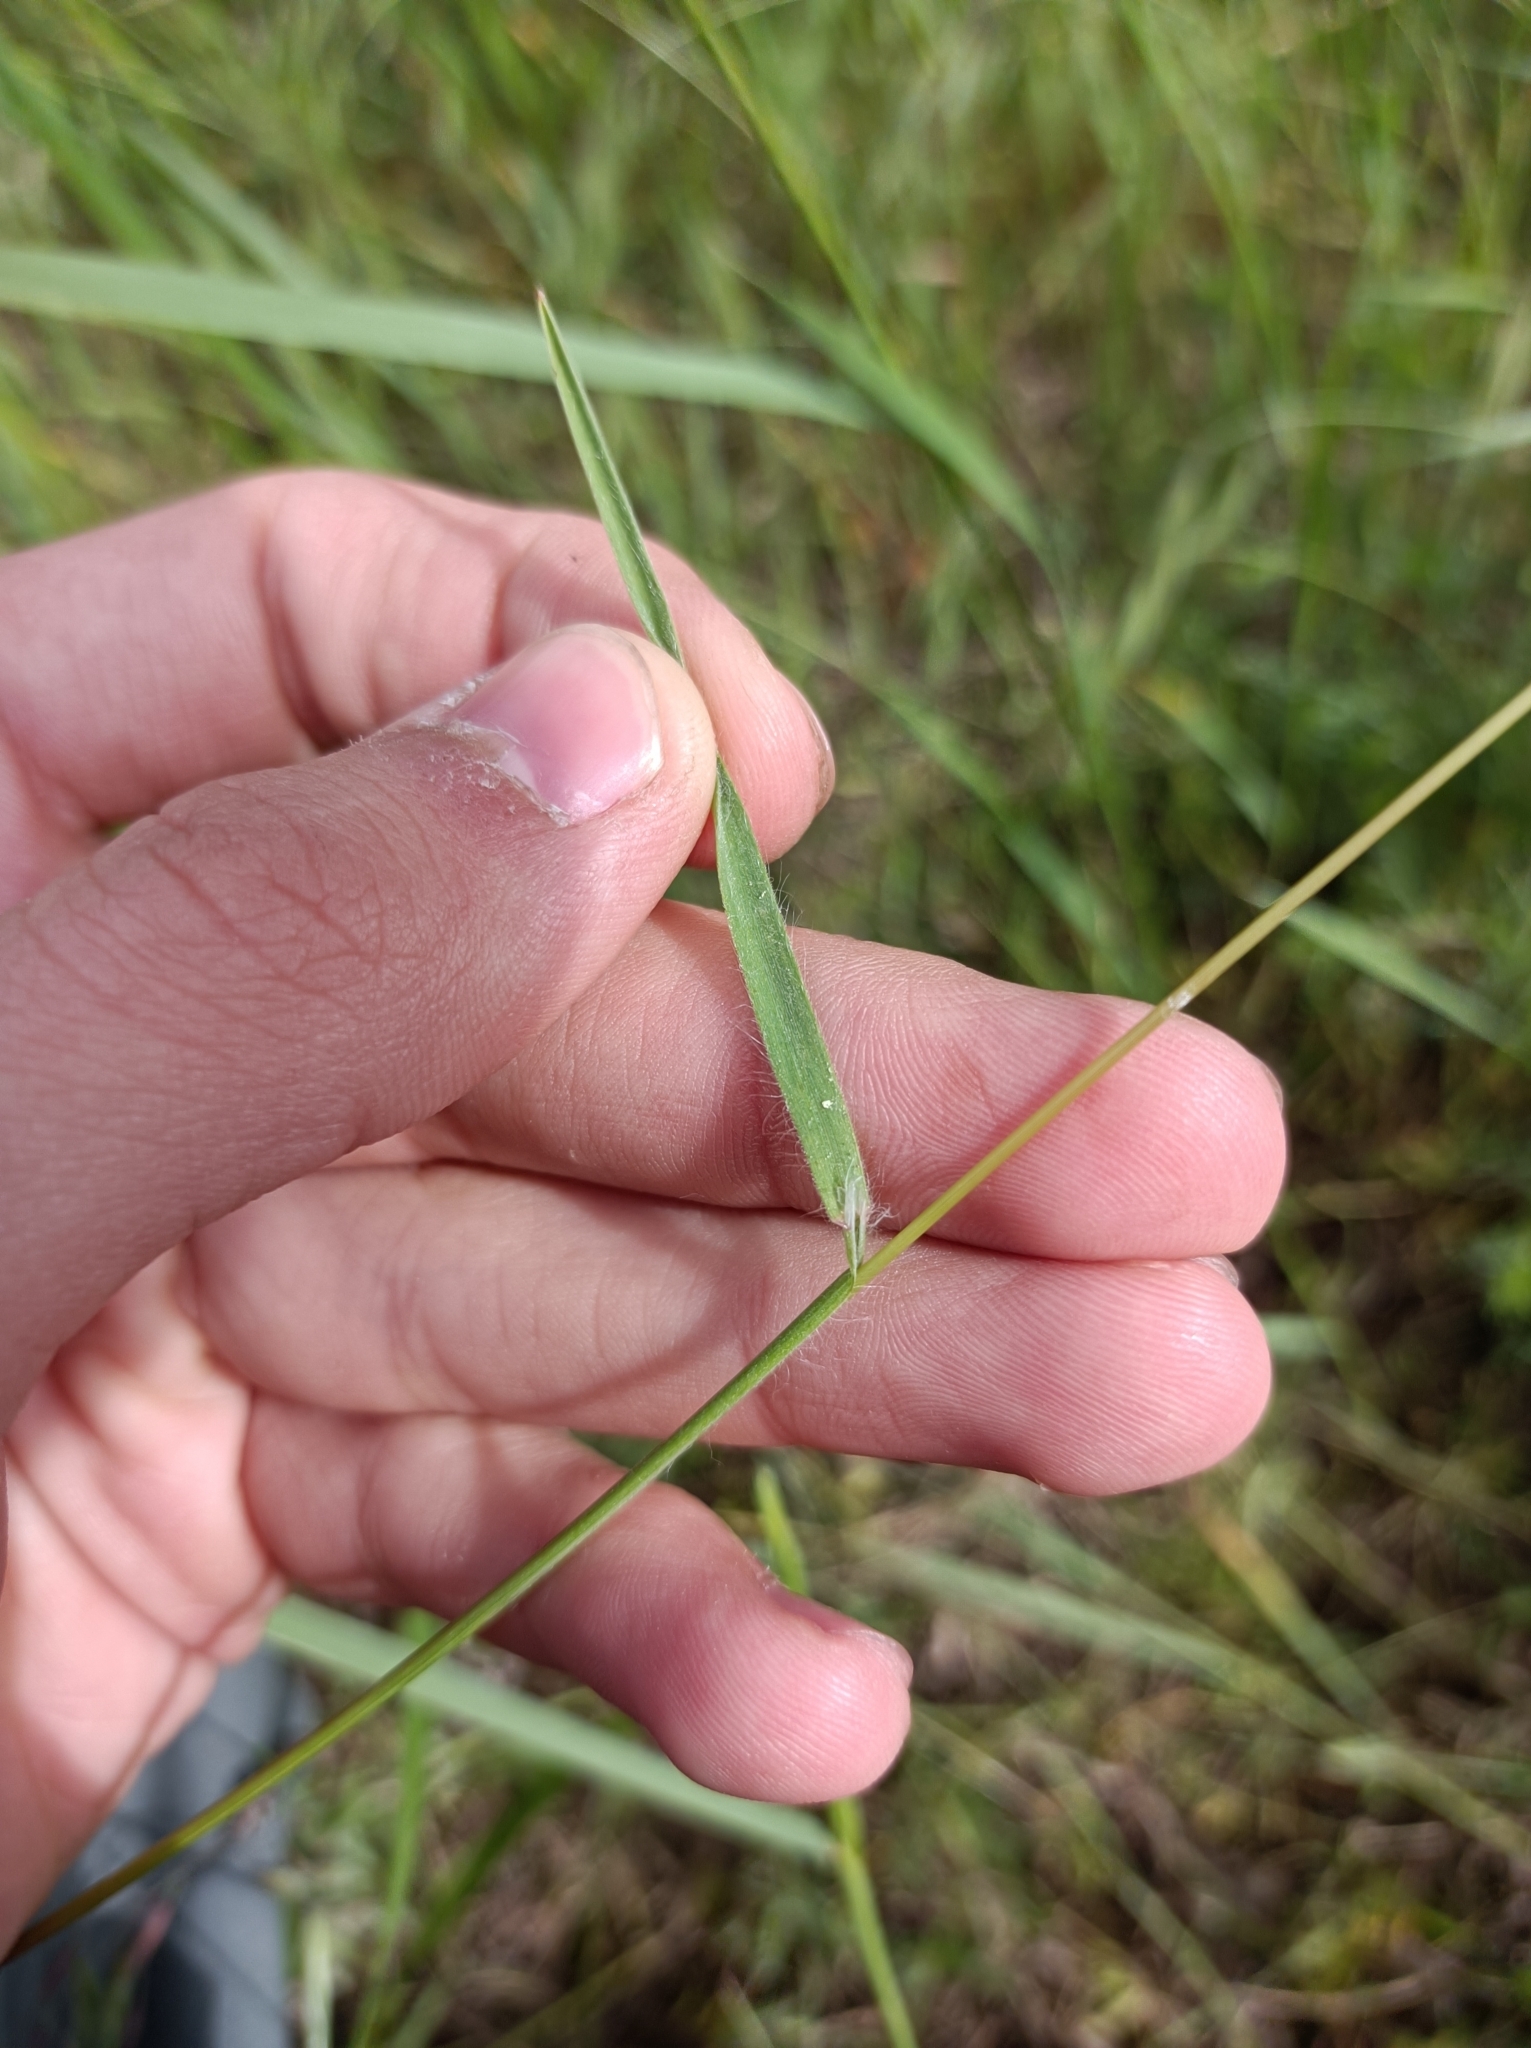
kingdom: Plantae
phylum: Tracheophyta
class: Liliopsida
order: Poales
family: Poaceae
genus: Bromus
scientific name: Bromus tectorum
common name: Cheatgrass
